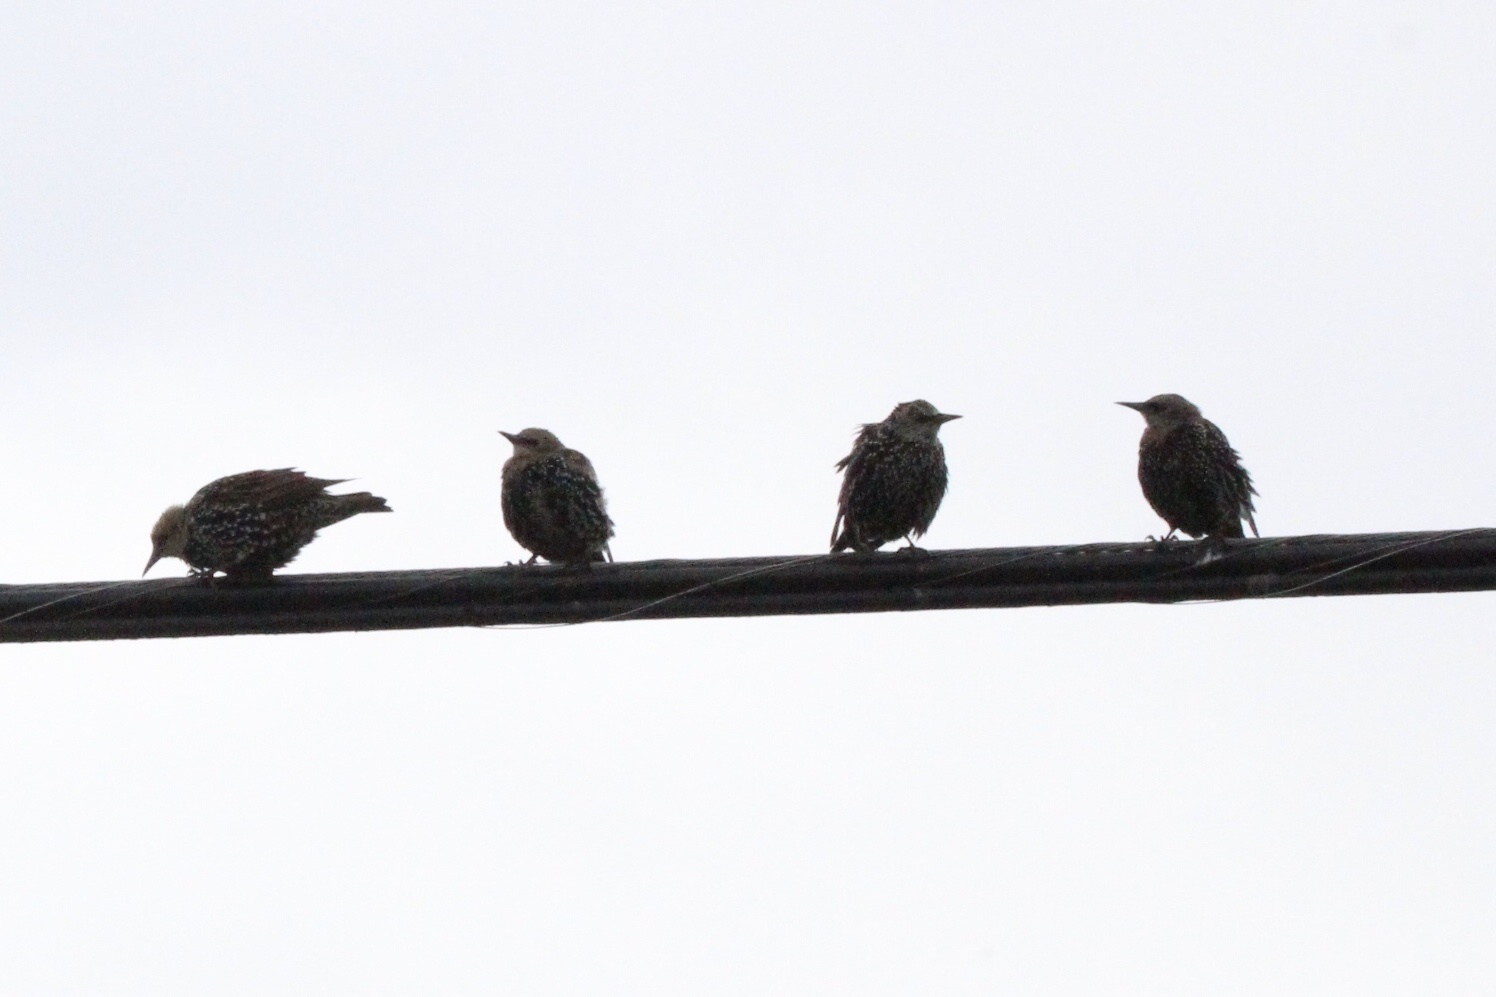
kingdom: Animalia
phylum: Chordata
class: Aves
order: Passeriformes
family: Sturnidae
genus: Sturnus
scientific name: Sturnus vulgaris
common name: Common starling
